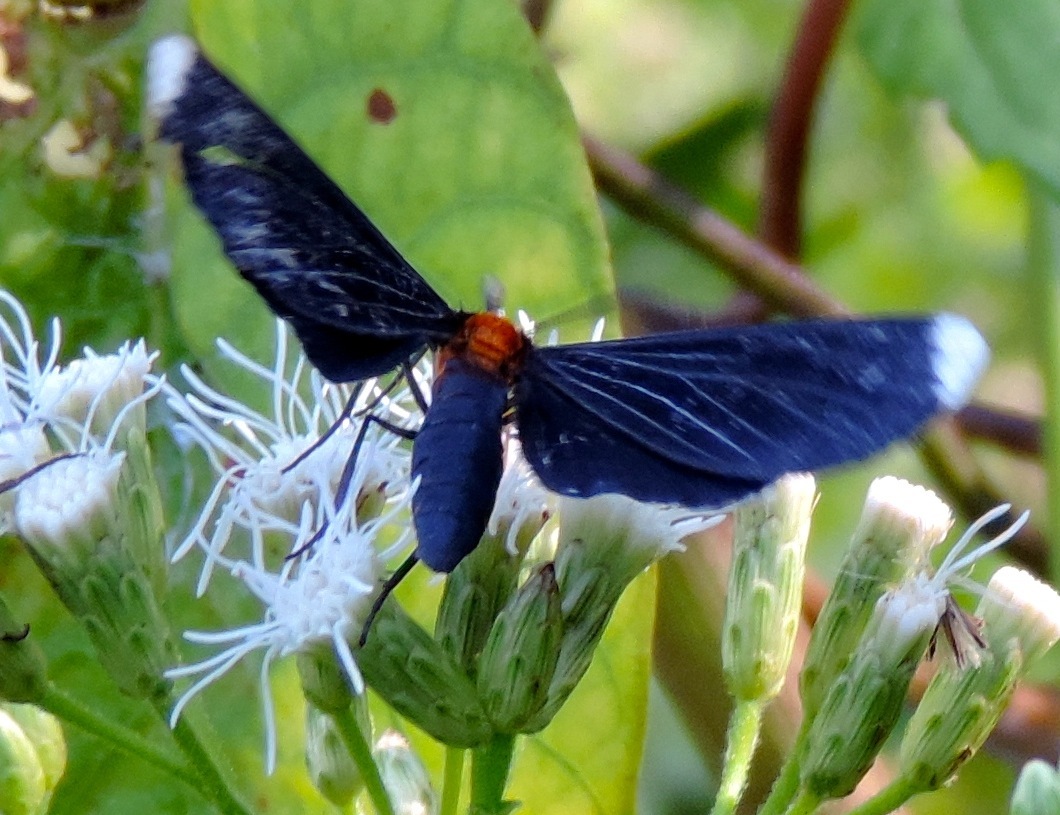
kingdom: Animalia
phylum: Arthropoda
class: Insecta
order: Lepidoptera
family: Geometridae
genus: Melanchroia
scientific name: Melanchroia chephise
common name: White-tipped black
